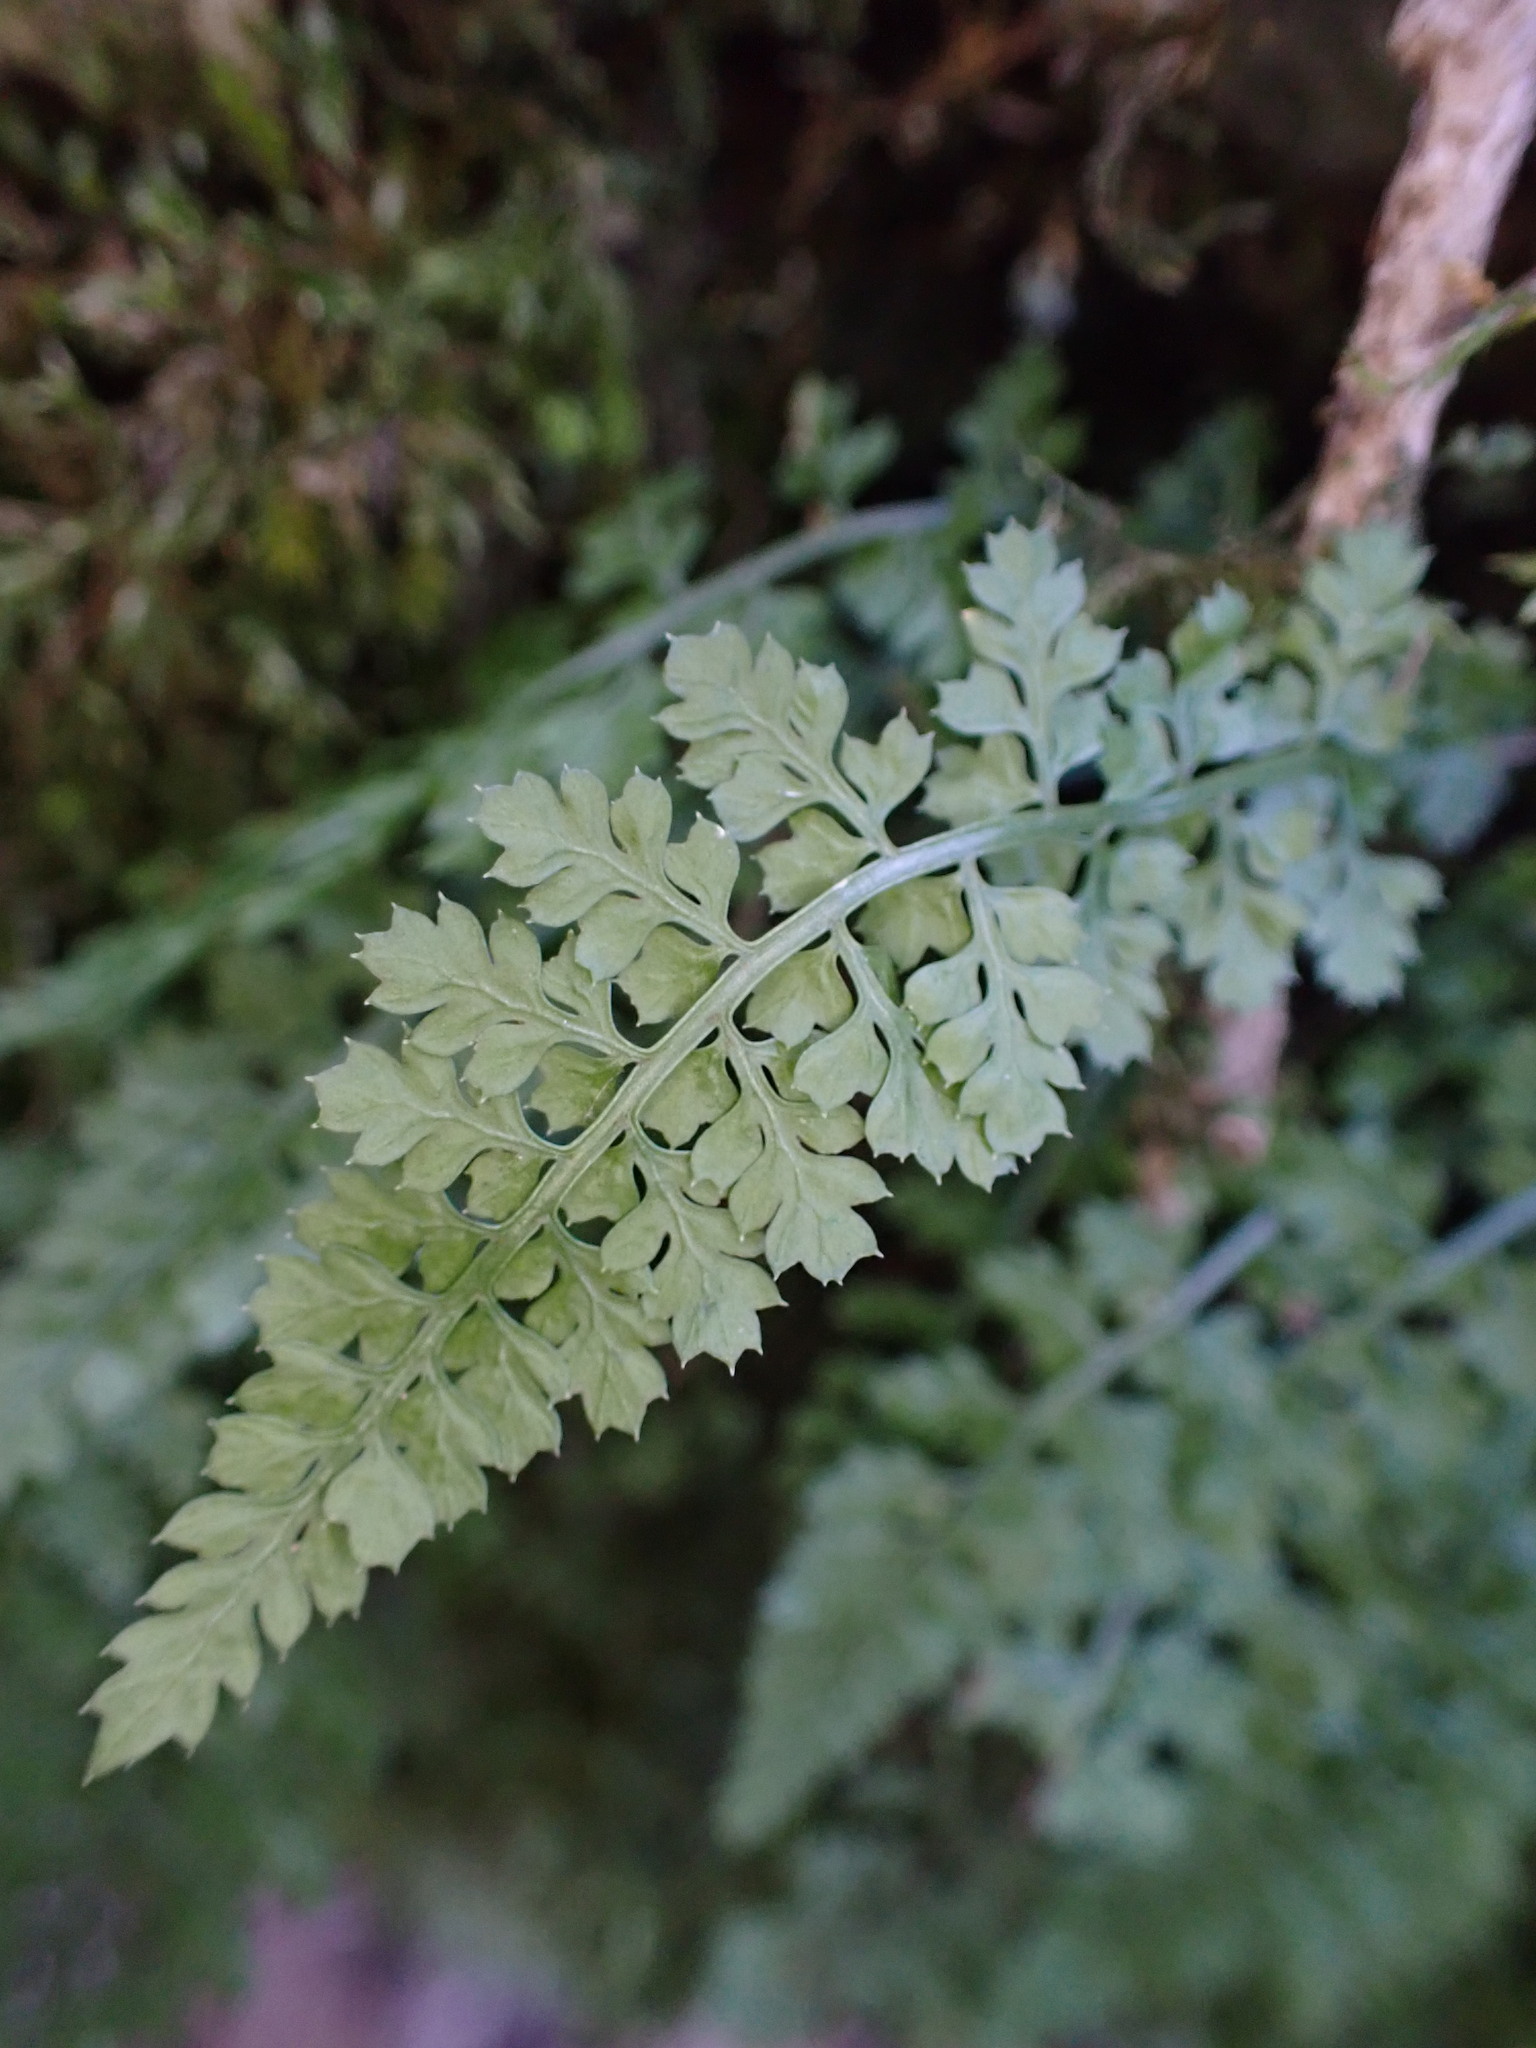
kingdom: Plantae
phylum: Tracheophyta
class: Polypodiopsida
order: Polypodiales
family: Aspleniaceae
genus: Asplenium
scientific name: Asplenium fontanum
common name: Fountain spleenwort
